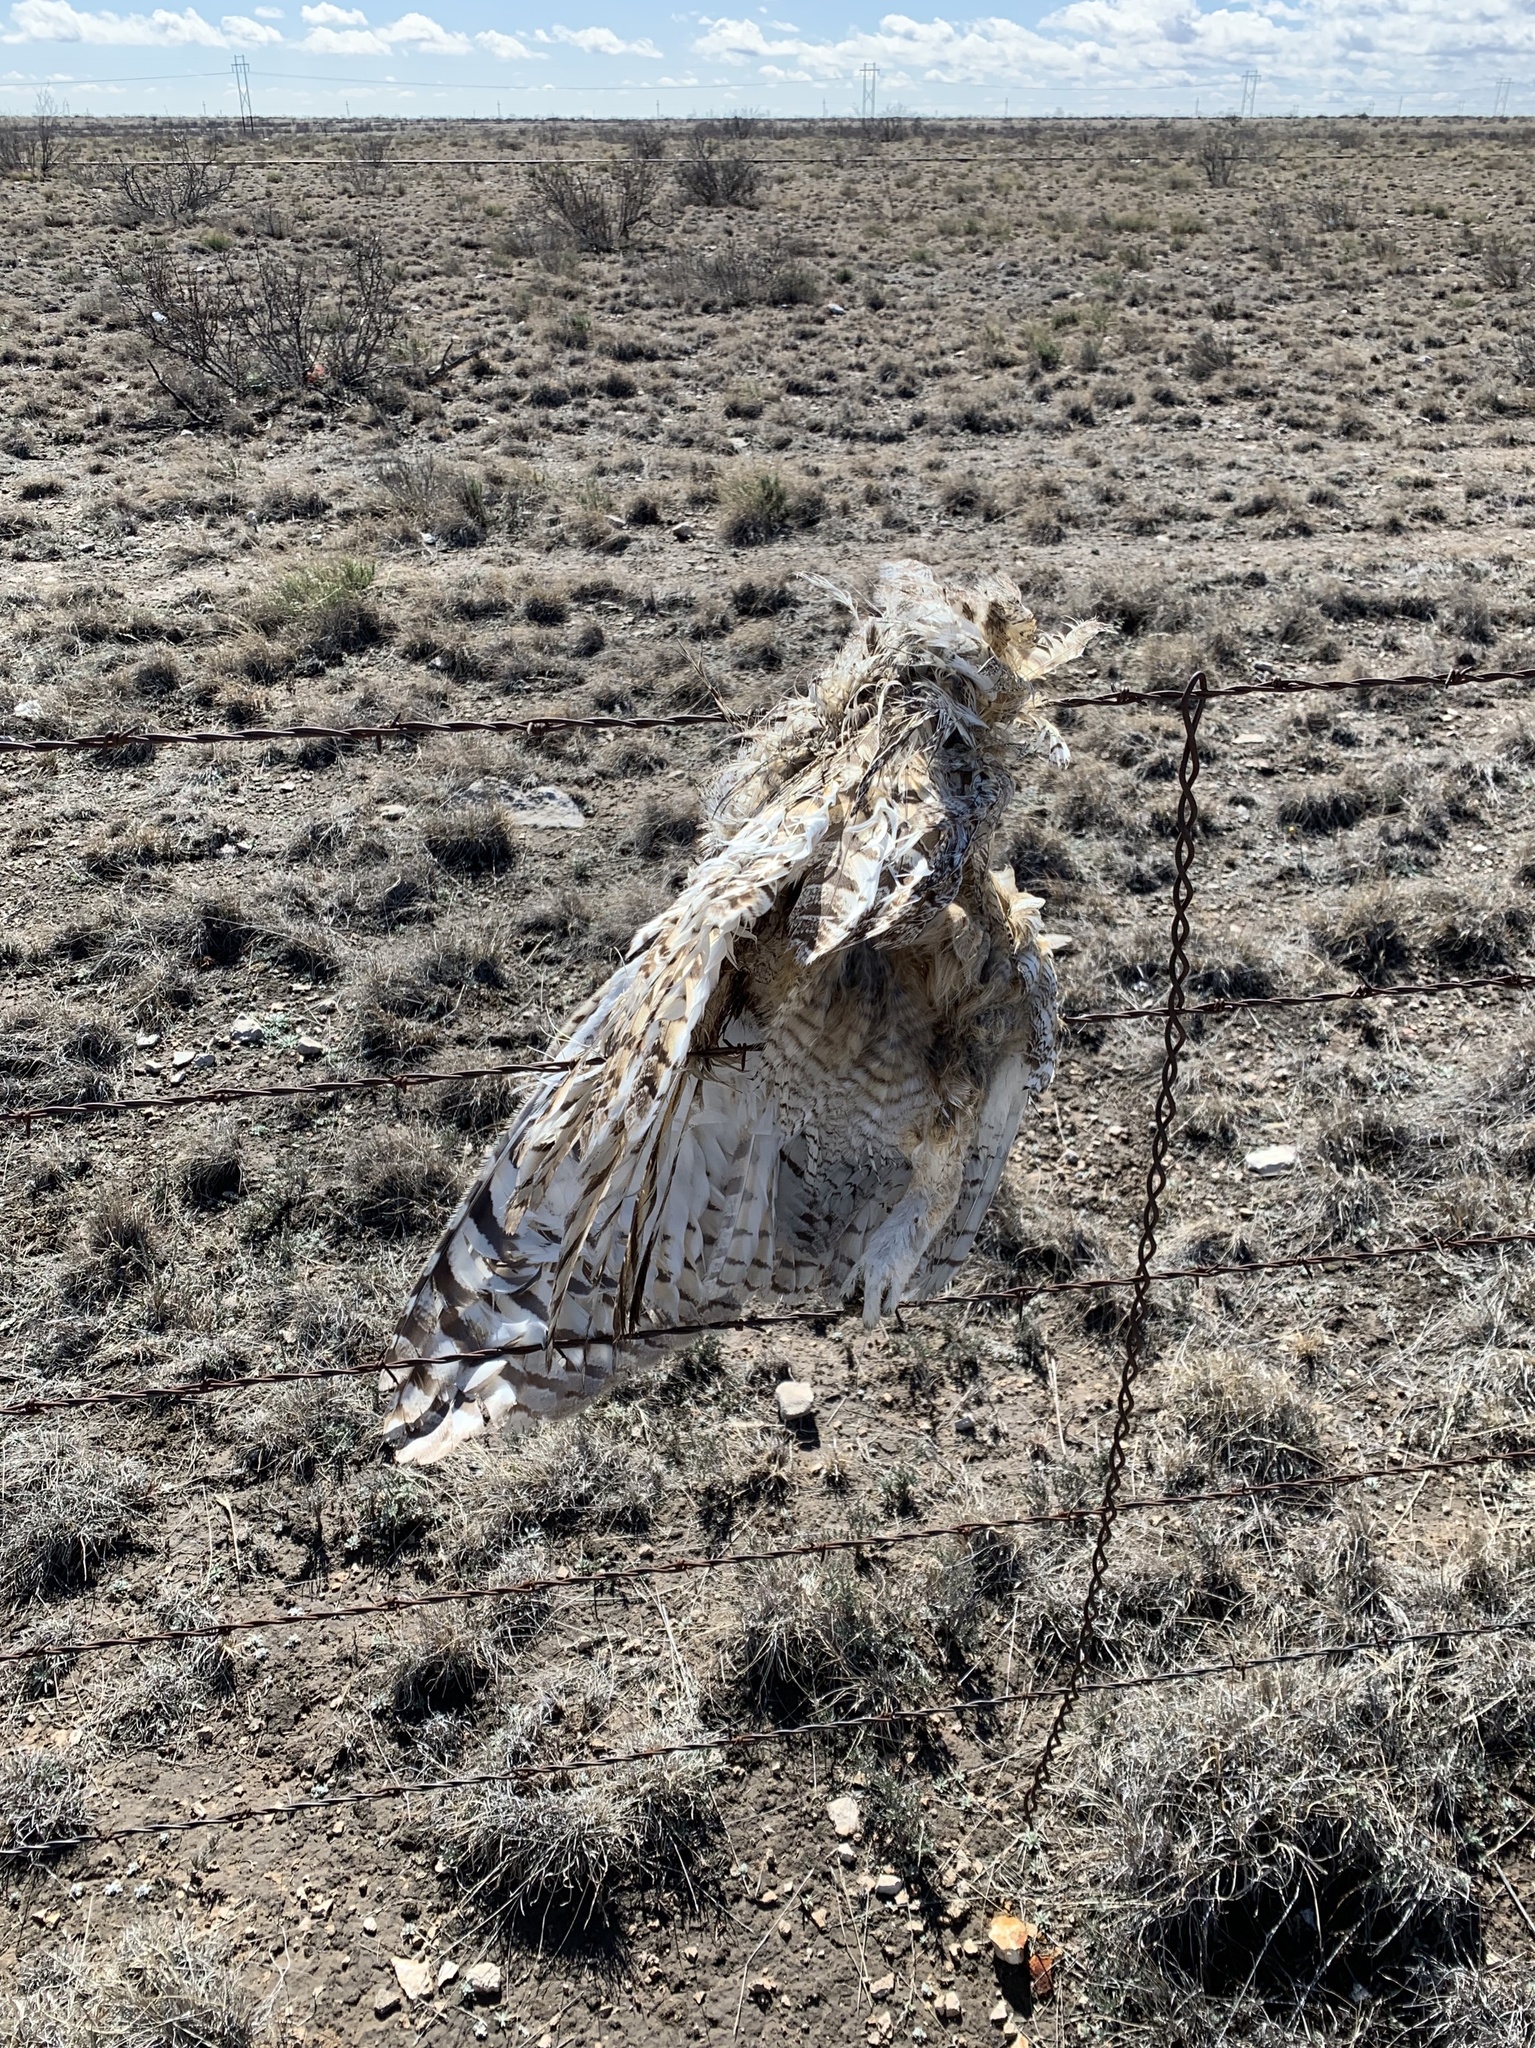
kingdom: Animalia
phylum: Chordata
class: Aves
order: Strigiformes
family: Strigidae
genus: Bubo
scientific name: Bubo virginianus
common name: Great horned owl
